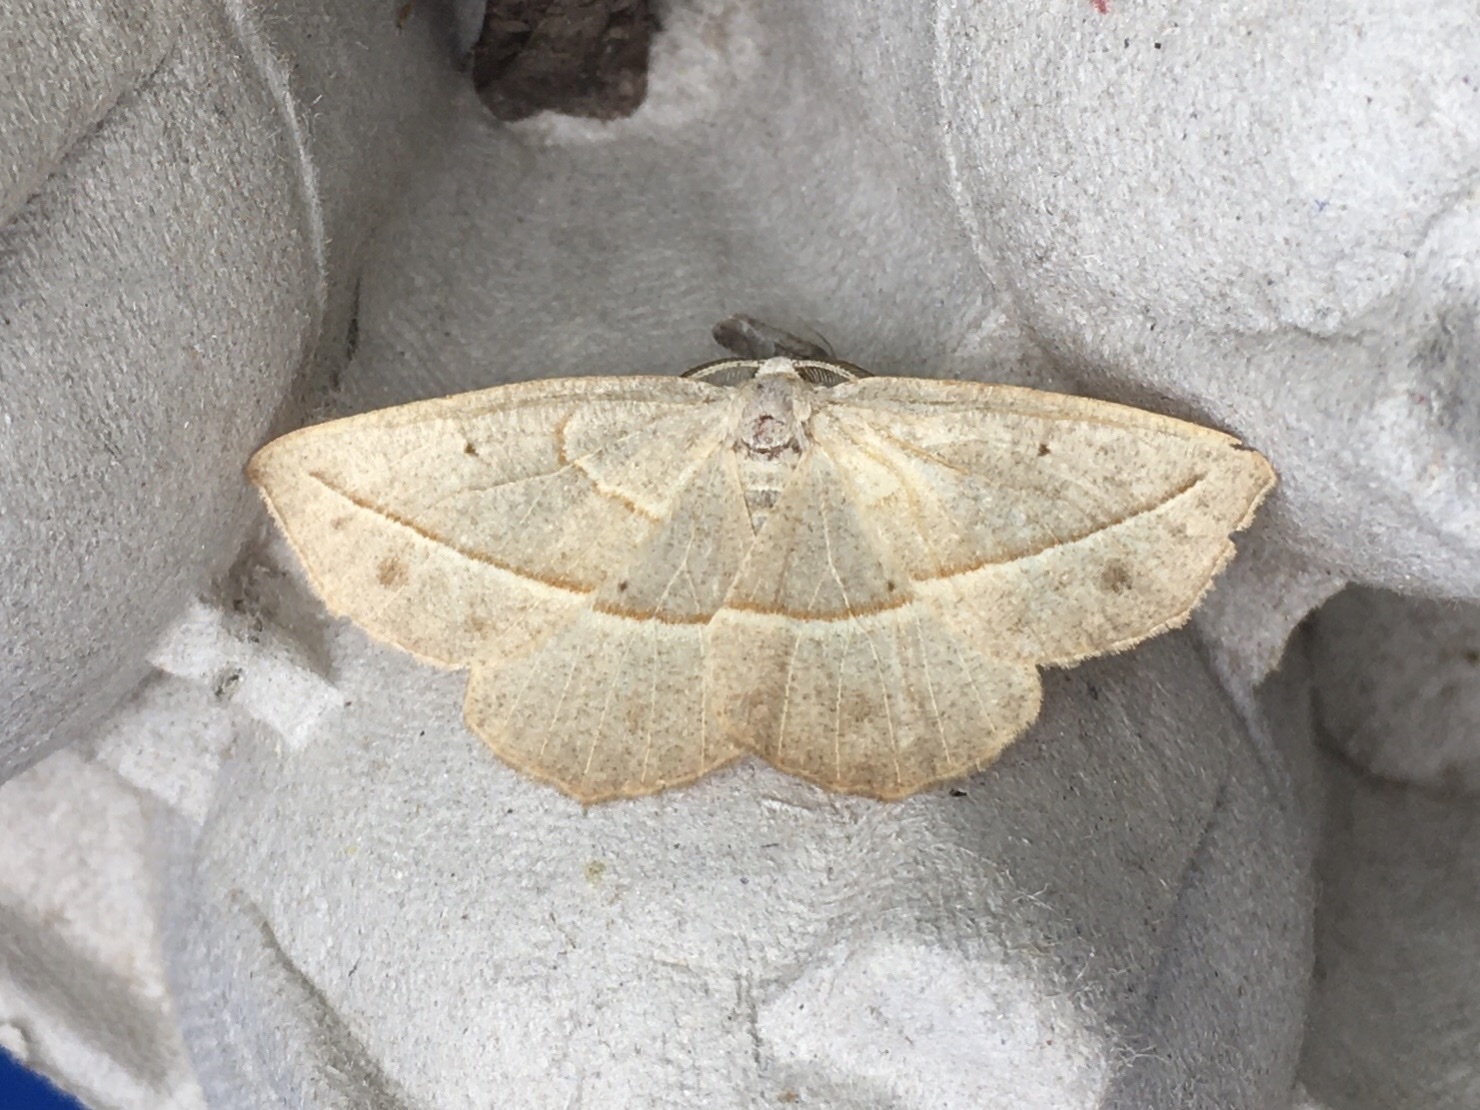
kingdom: Animalia
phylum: Arthropoda
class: Insecta
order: Lepidoptera
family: Geometridae
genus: Eusarca
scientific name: Eusarca confusaria
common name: Confused eusarca
